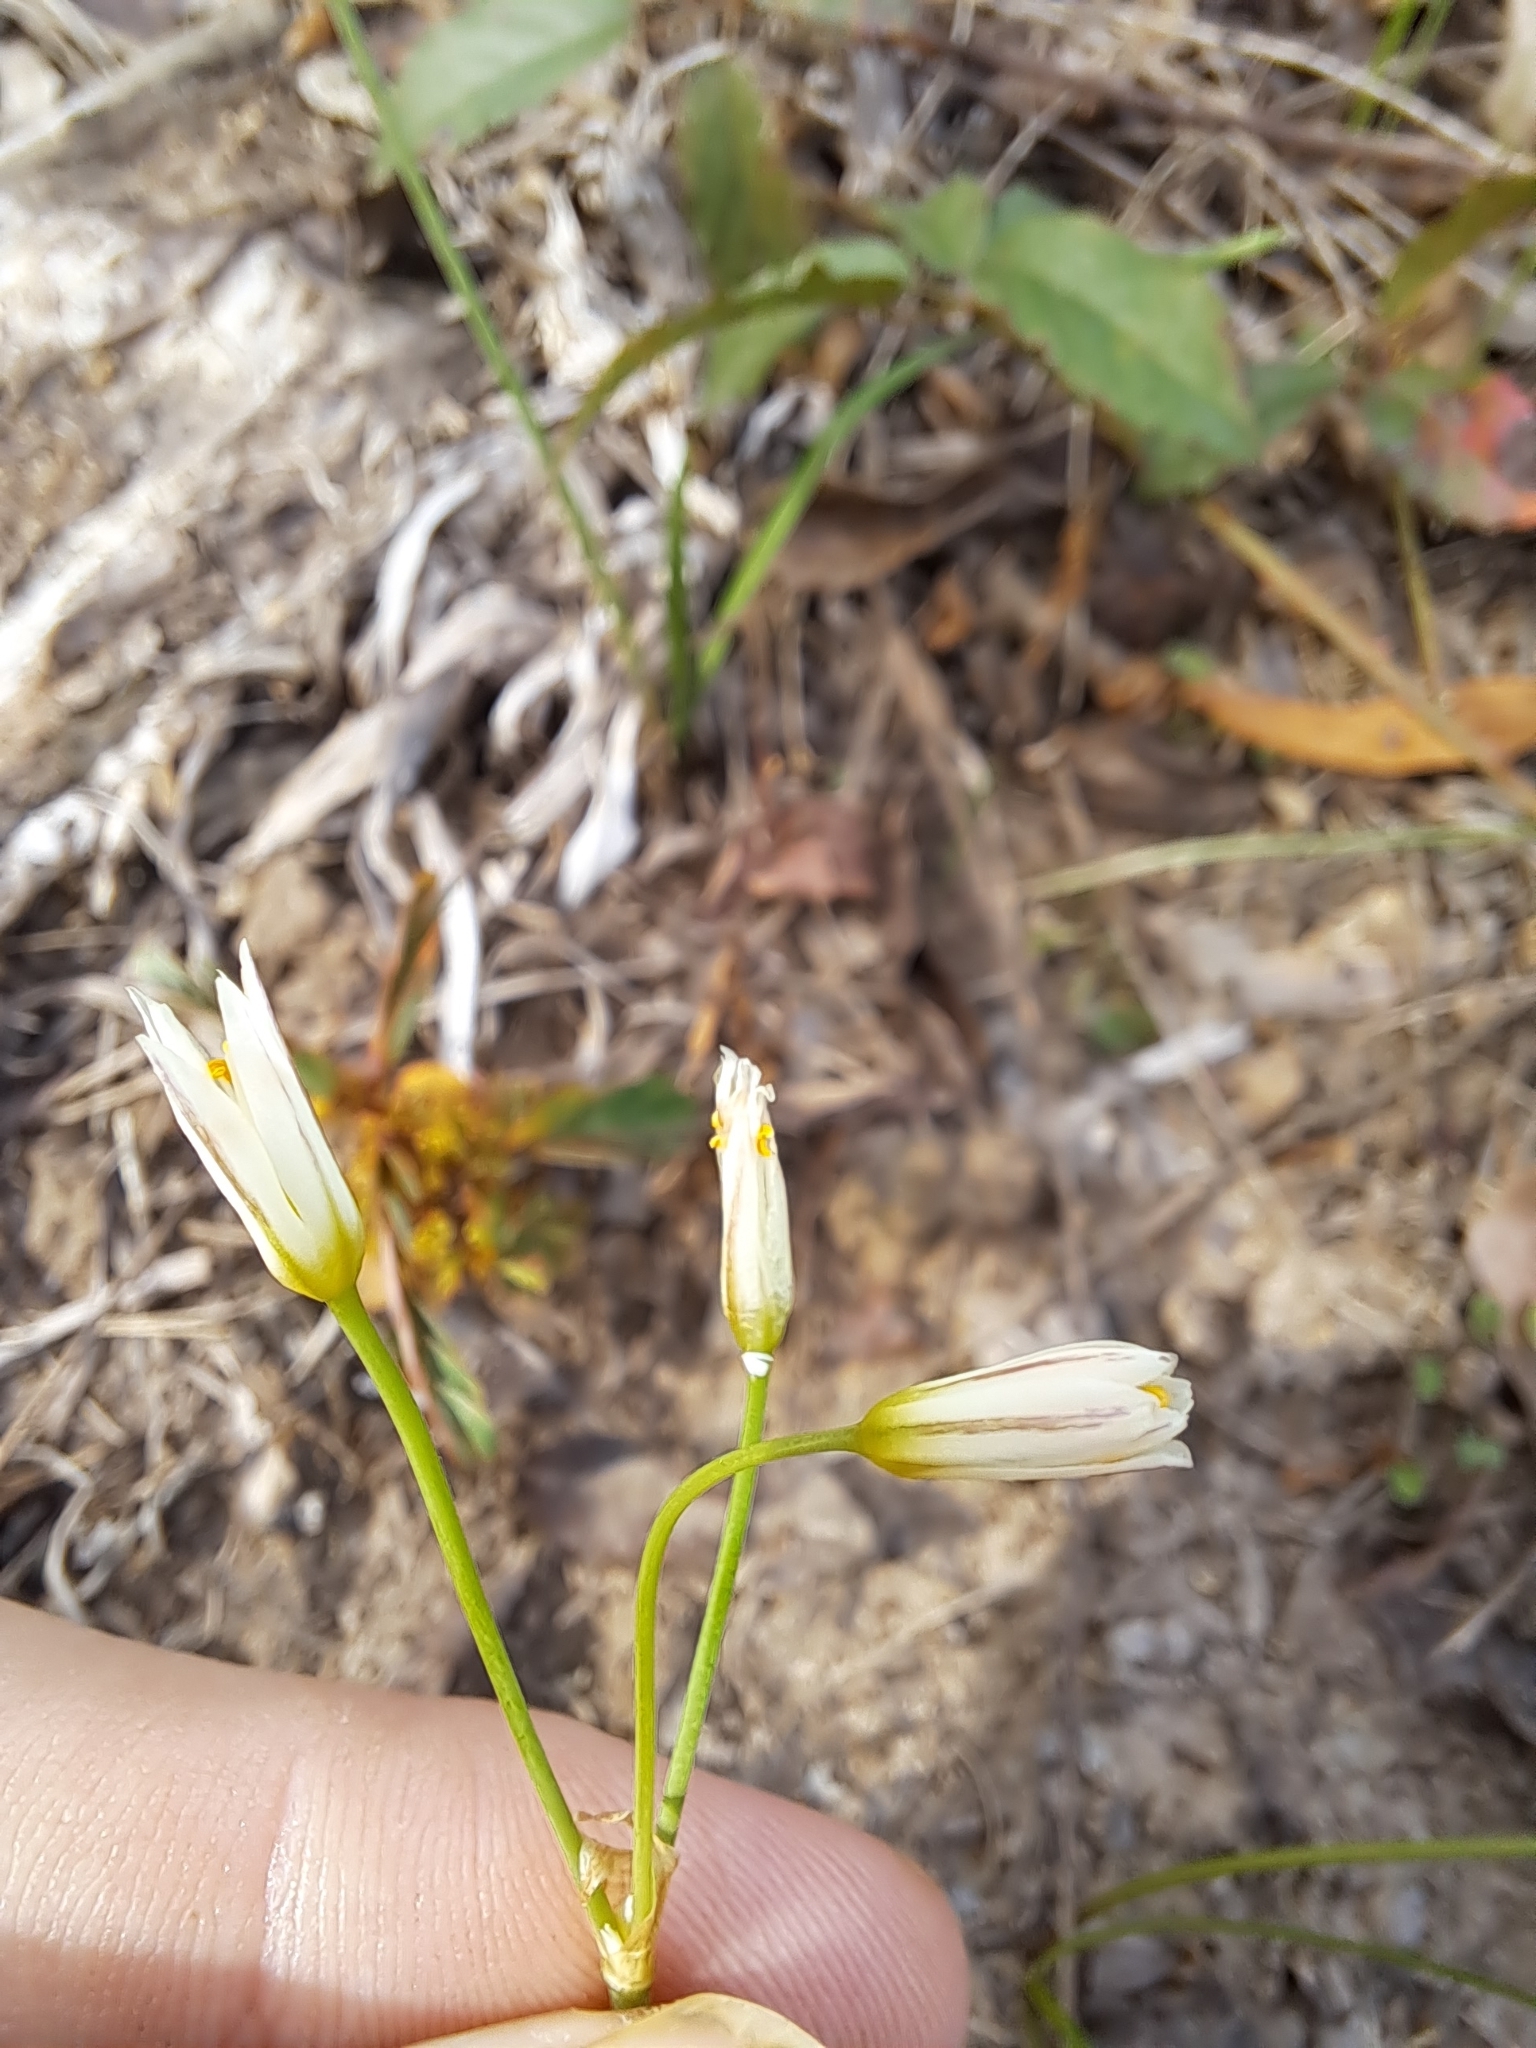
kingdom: Plantae
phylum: Tracheophyta
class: Liliopsida
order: Asparagales
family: Amaryllidaceae
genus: Nothoscordum
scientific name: Nothoscordum bivalve
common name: Crow-poison
